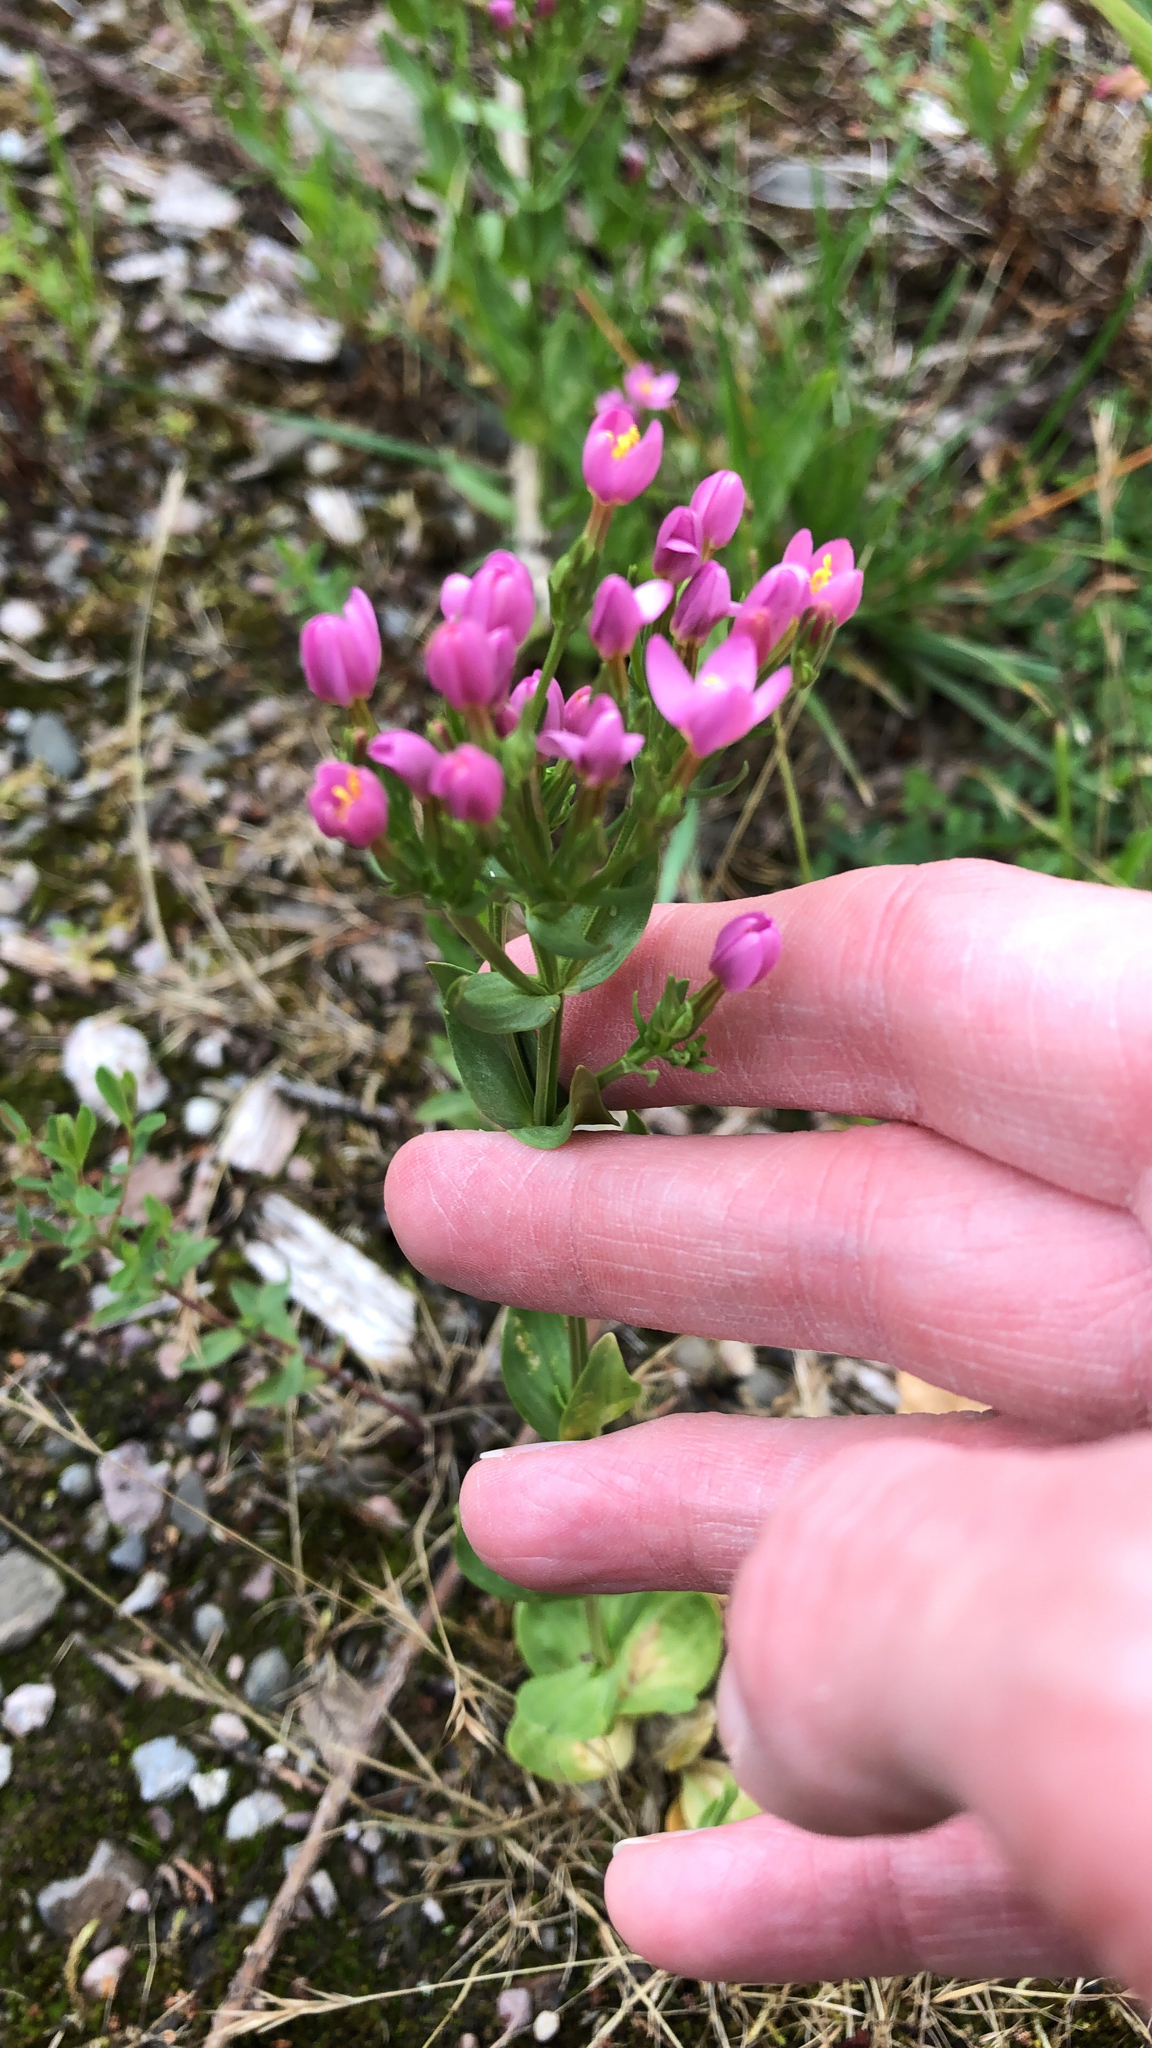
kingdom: Plantae
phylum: Tracheophyta
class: Magnoliopsida
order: Gentianales
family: Gentianaceae
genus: Centaurium
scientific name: Centaurium erythraea
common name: Common centaury
